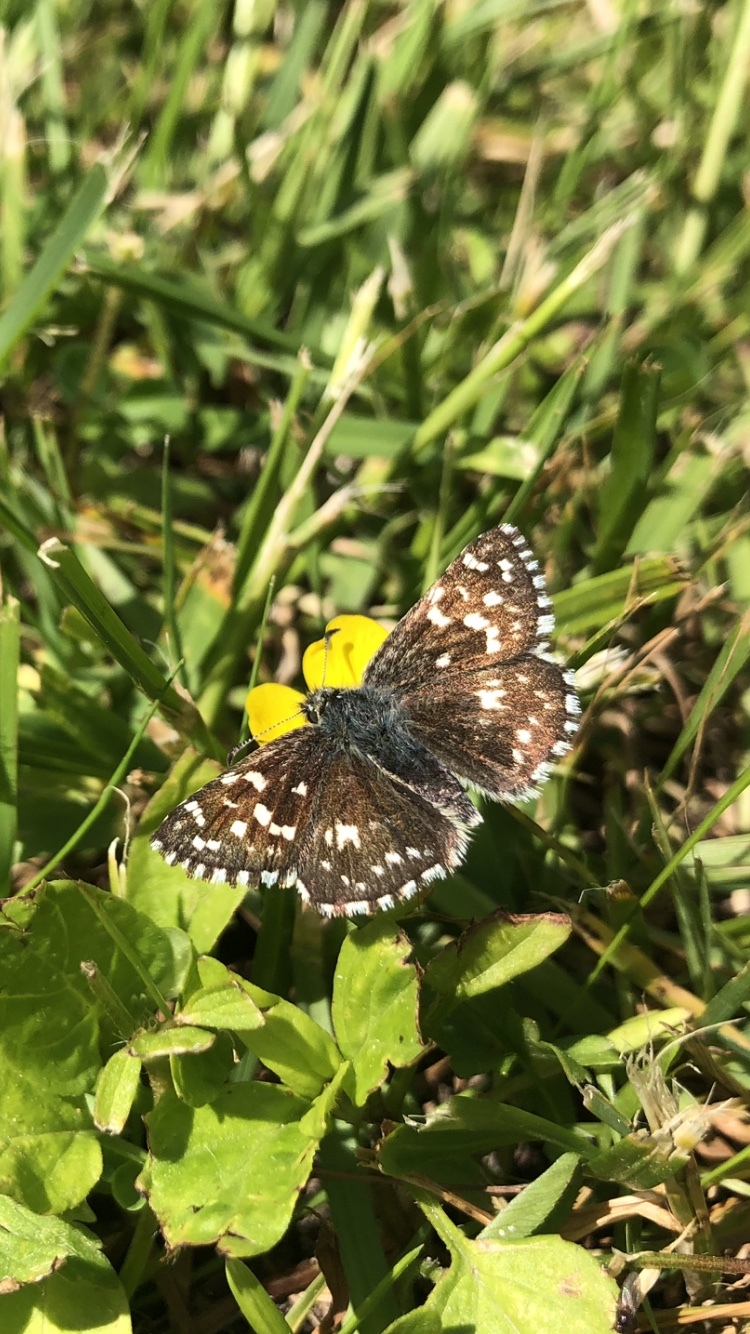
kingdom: Animalia
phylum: Arthropoda
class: Insecta
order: Lepidoptera
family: Hesperiidae
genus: Pyrgus
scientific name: Pyrgus malvae
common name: Grizzled skipper
